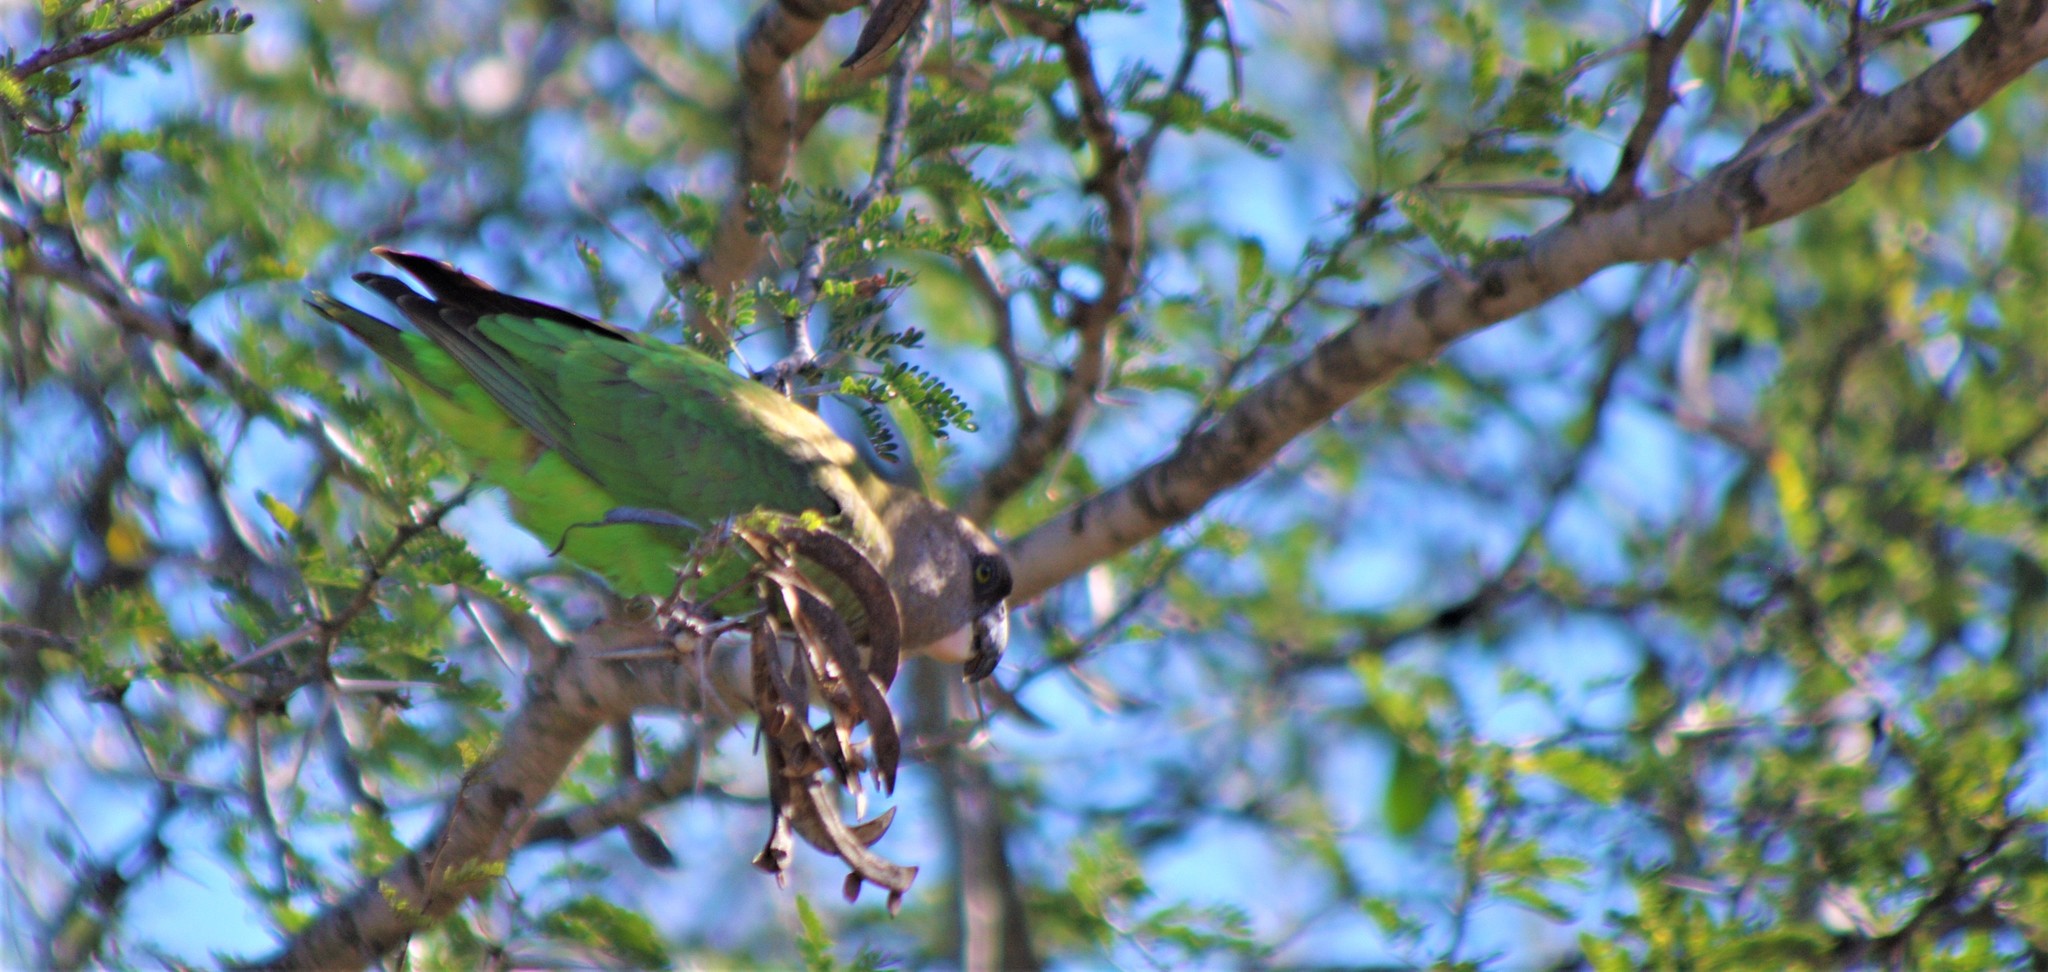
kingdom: Animalia
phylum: Chordata
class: Aves
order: Psittaciformes
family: Psittacidae
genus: Poicephalus
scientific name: Poicephalus cryptoxanthus
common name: Brown-headed parrot
